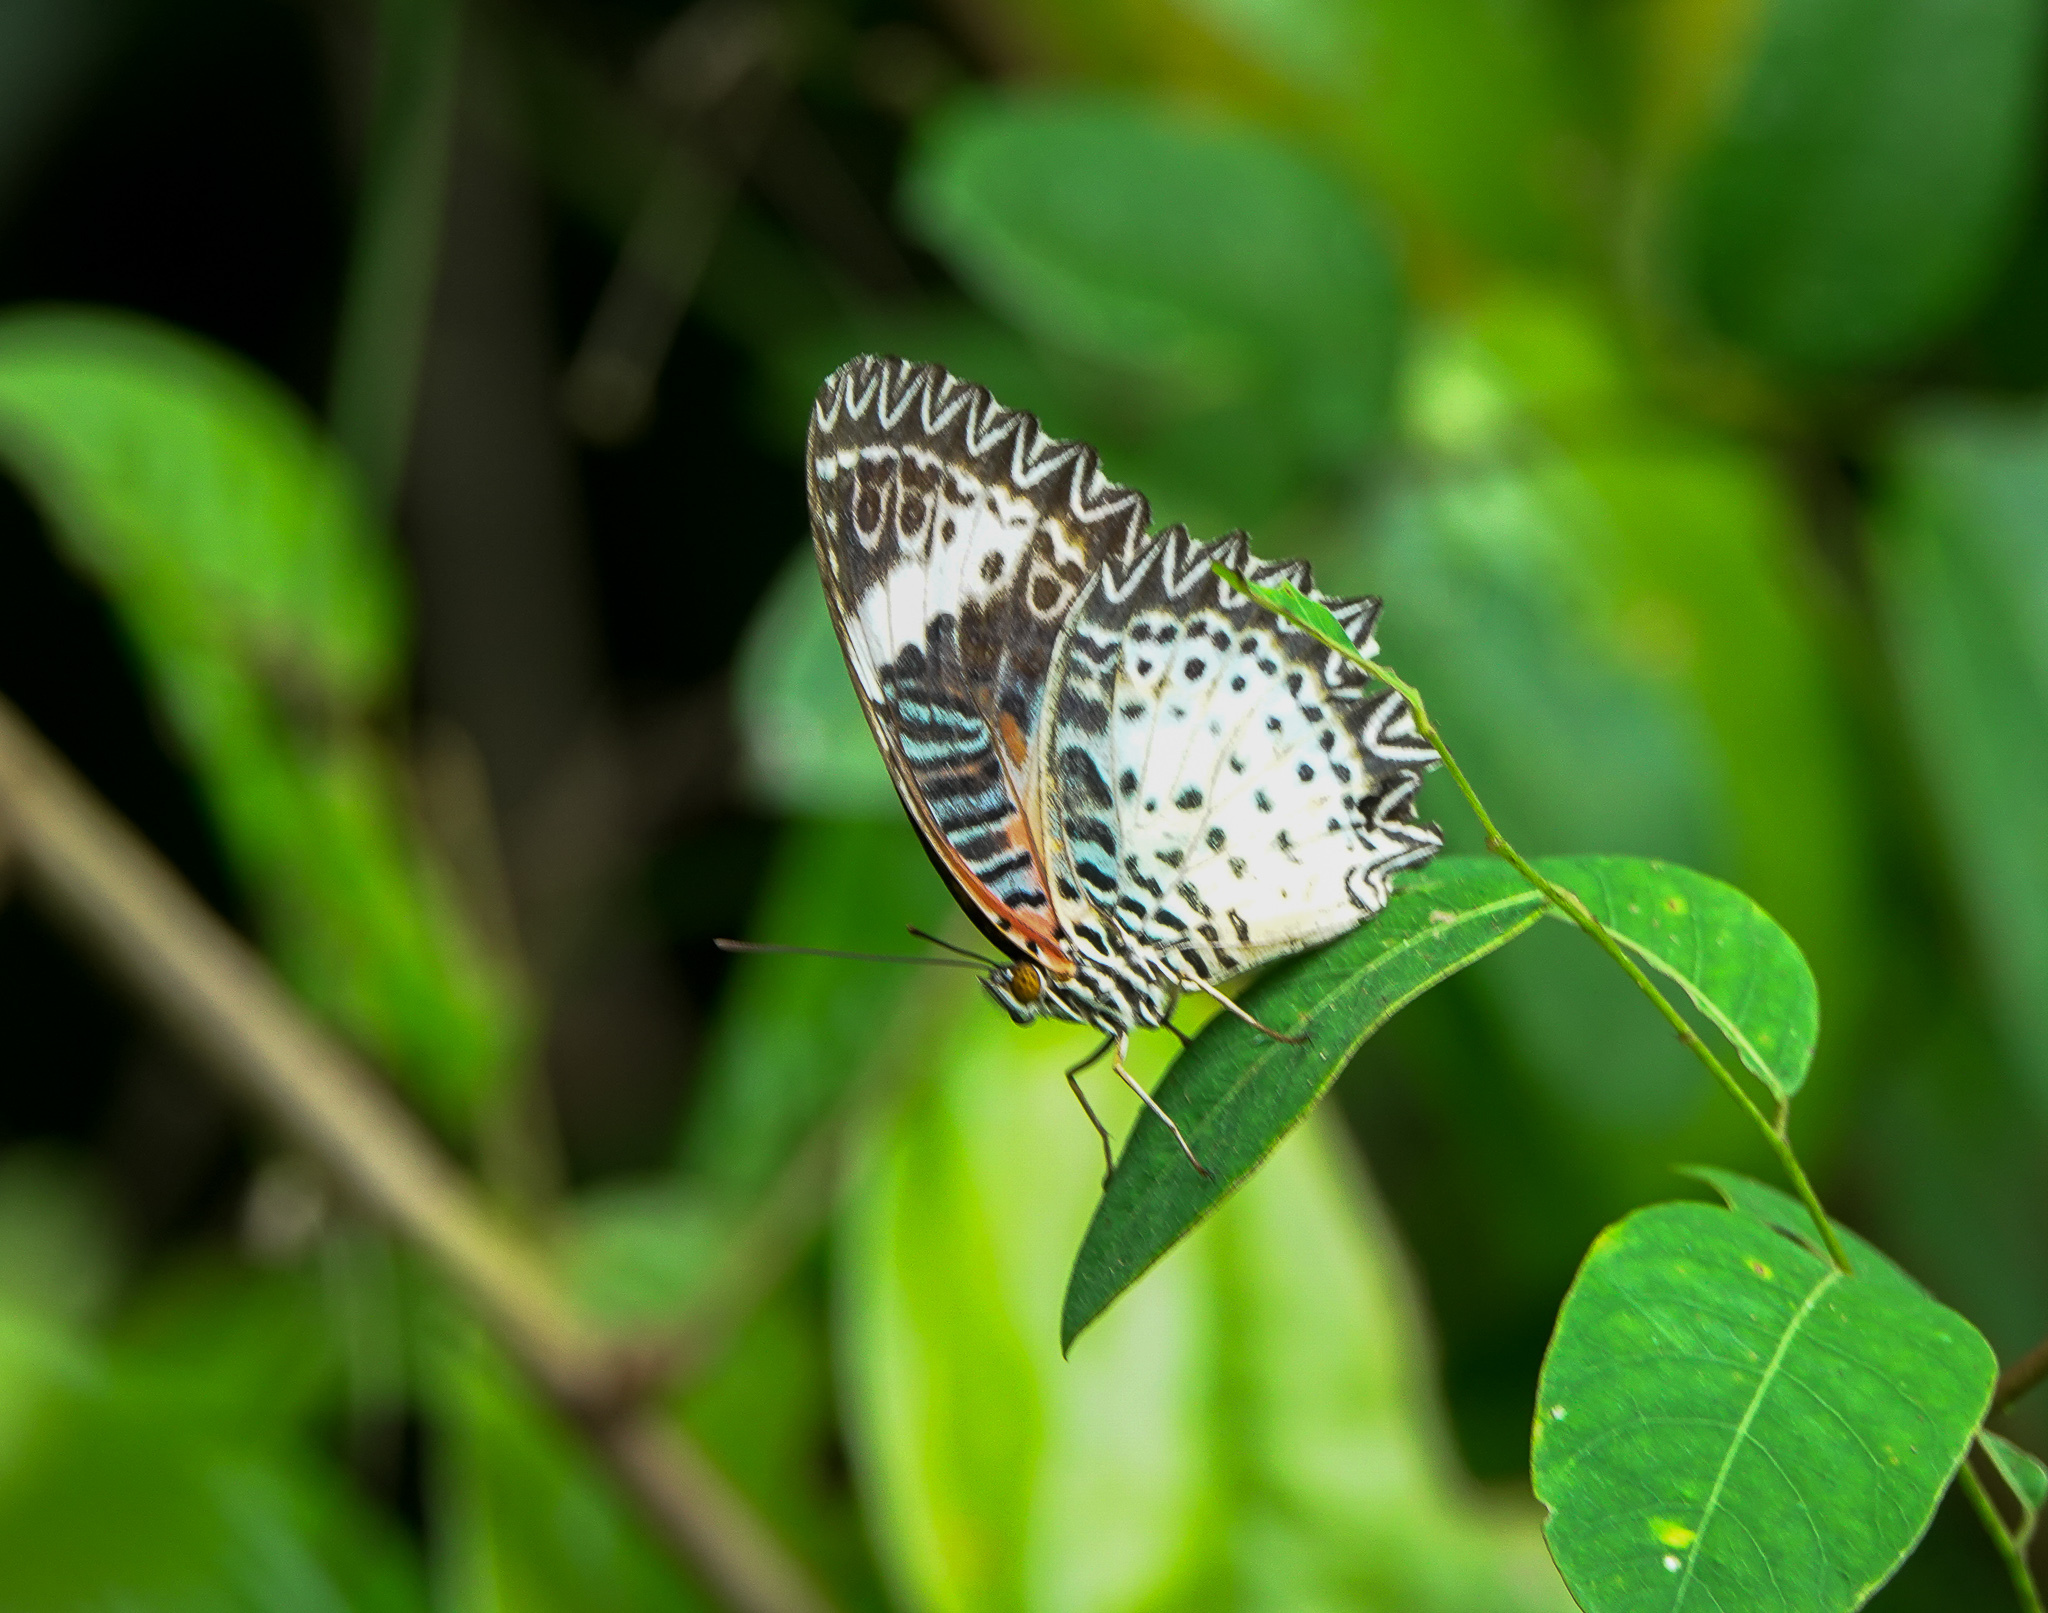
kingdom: Animalia
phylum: Arthropoda
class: Insecta
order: Lepidoptera
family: Nymphalidae
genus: Cethosia
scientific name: Cethosia cyane
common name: Leopard lacewing butterfly
